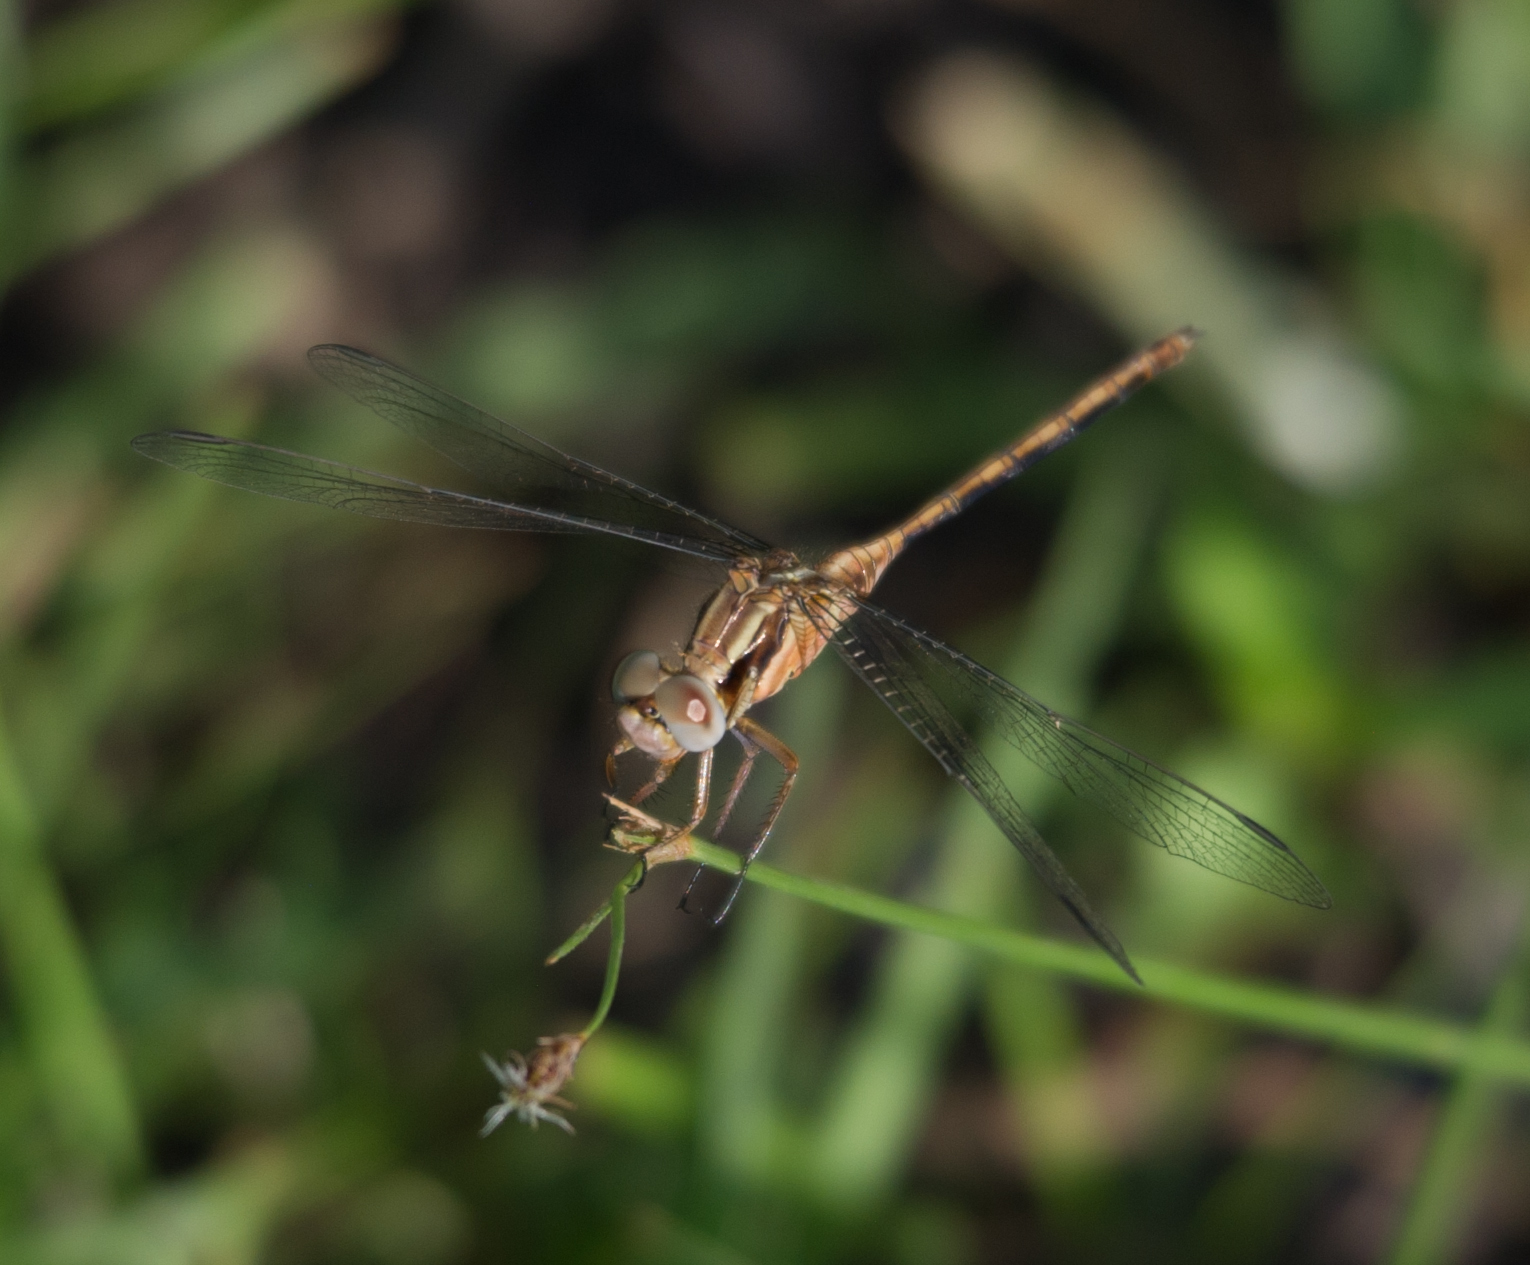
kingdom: Animalia
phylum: Arthropoda
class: Insecta
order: Odonata
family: Libellulidae
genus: Orthetrum
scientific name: Orthetrum machadoi
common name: Highland skimmer
